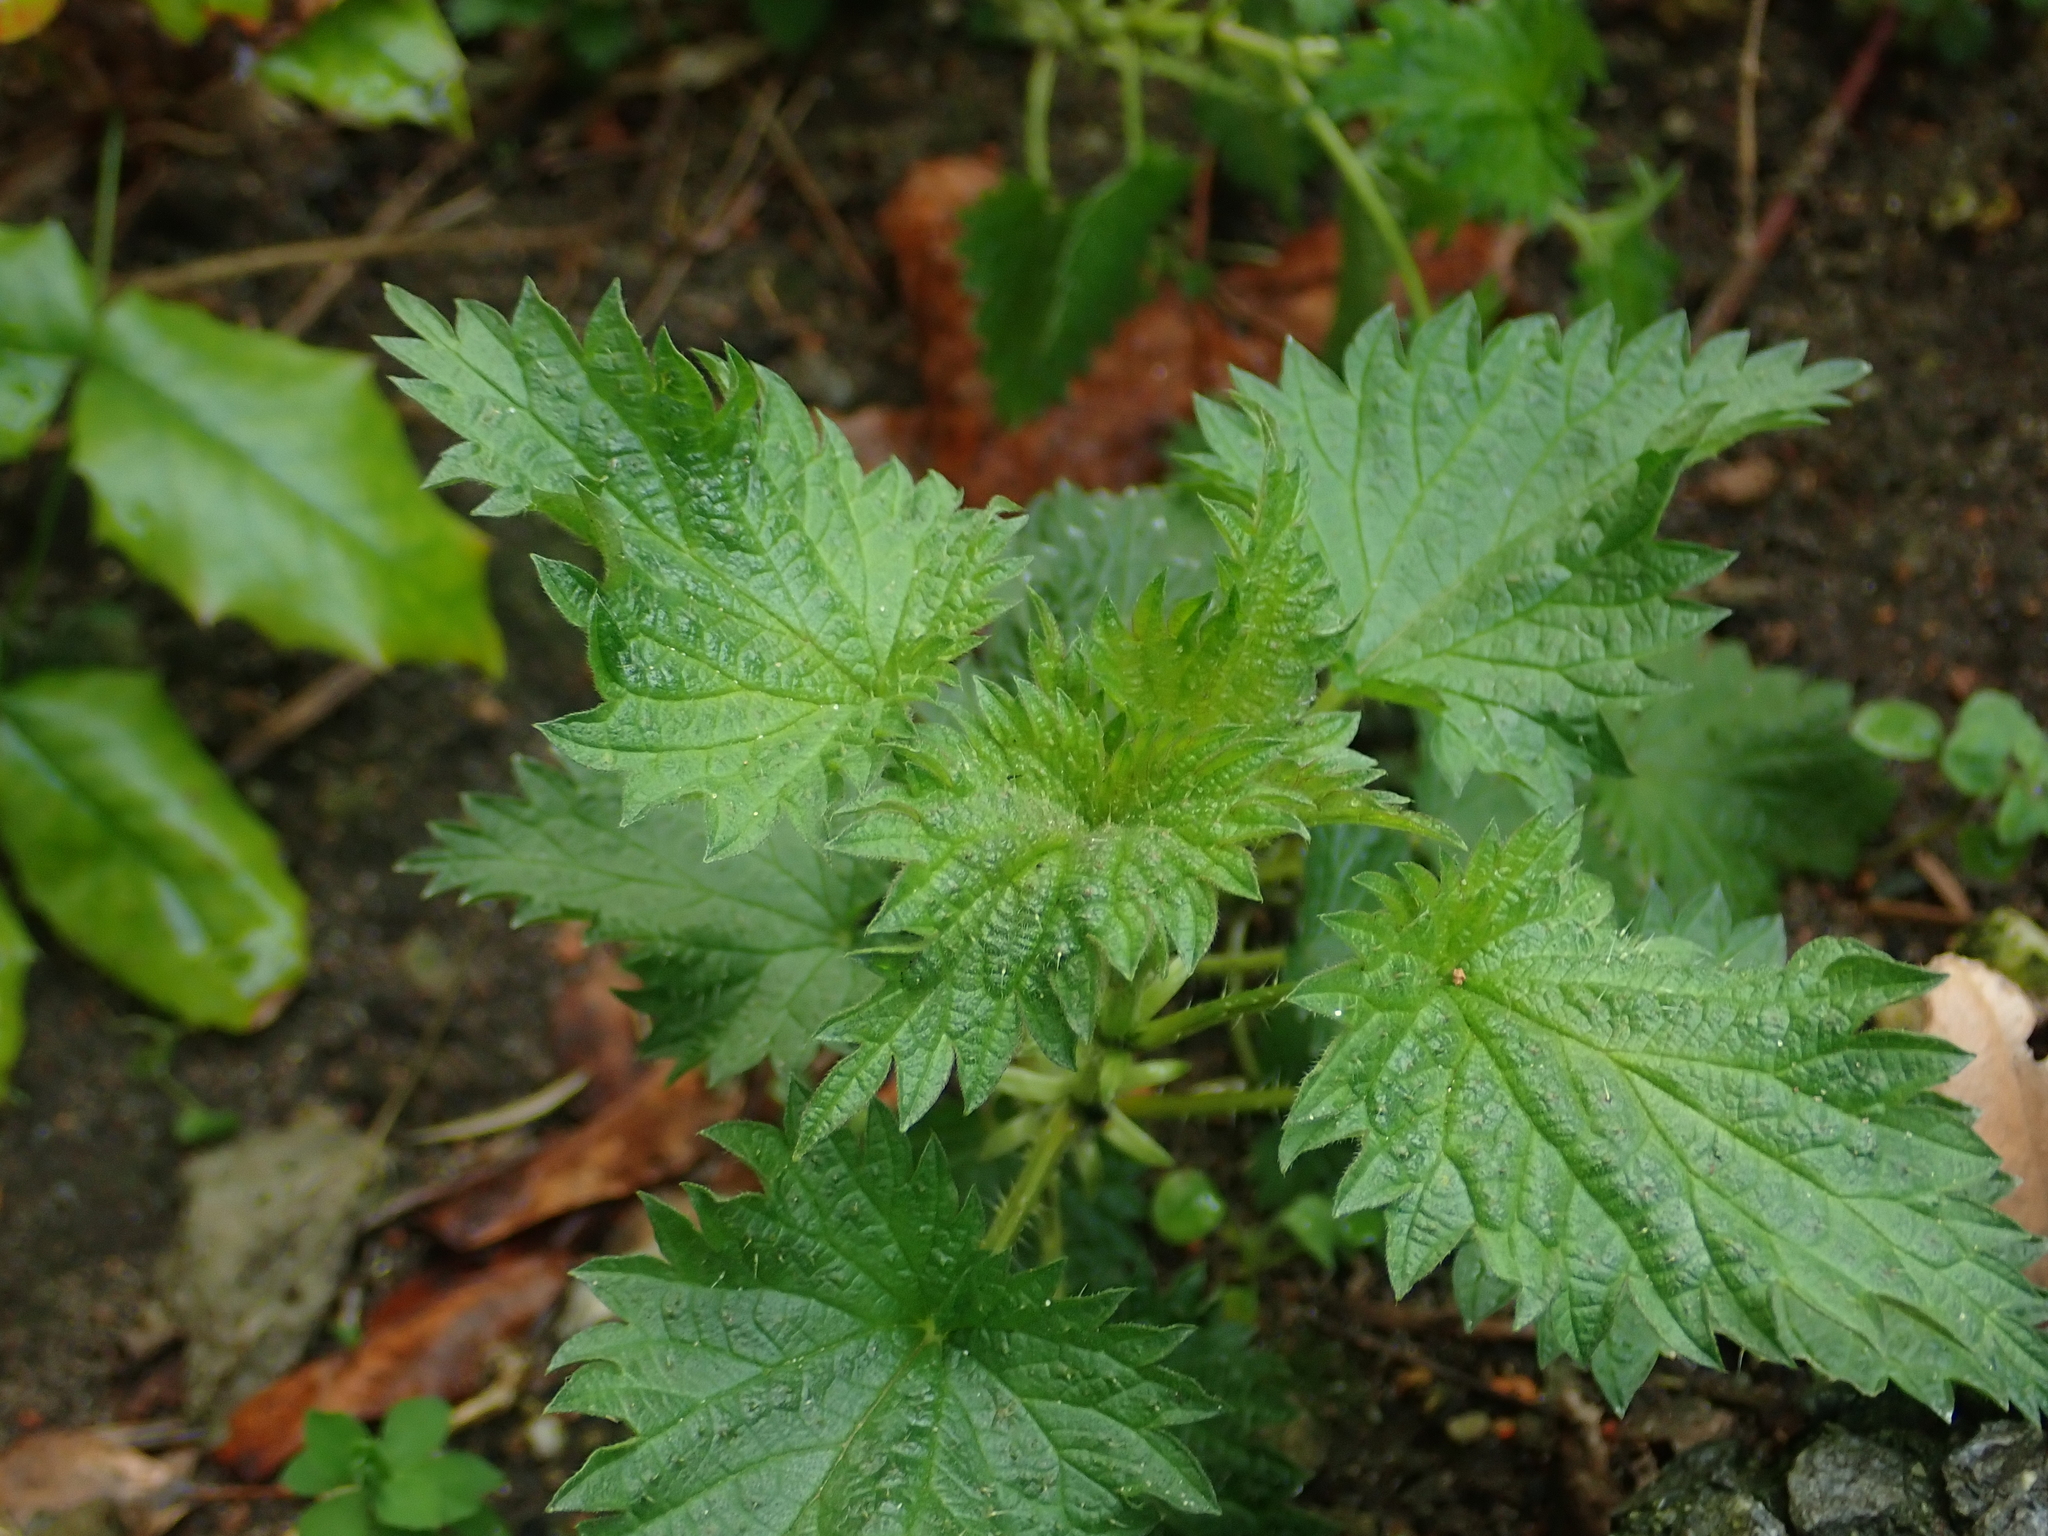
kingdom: Plantae
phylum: Tracheophyta
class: Magnoliopsida
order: Rosales
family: Urticaceae
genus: Urtica
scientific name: Urtica dioica
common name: Common nettle
